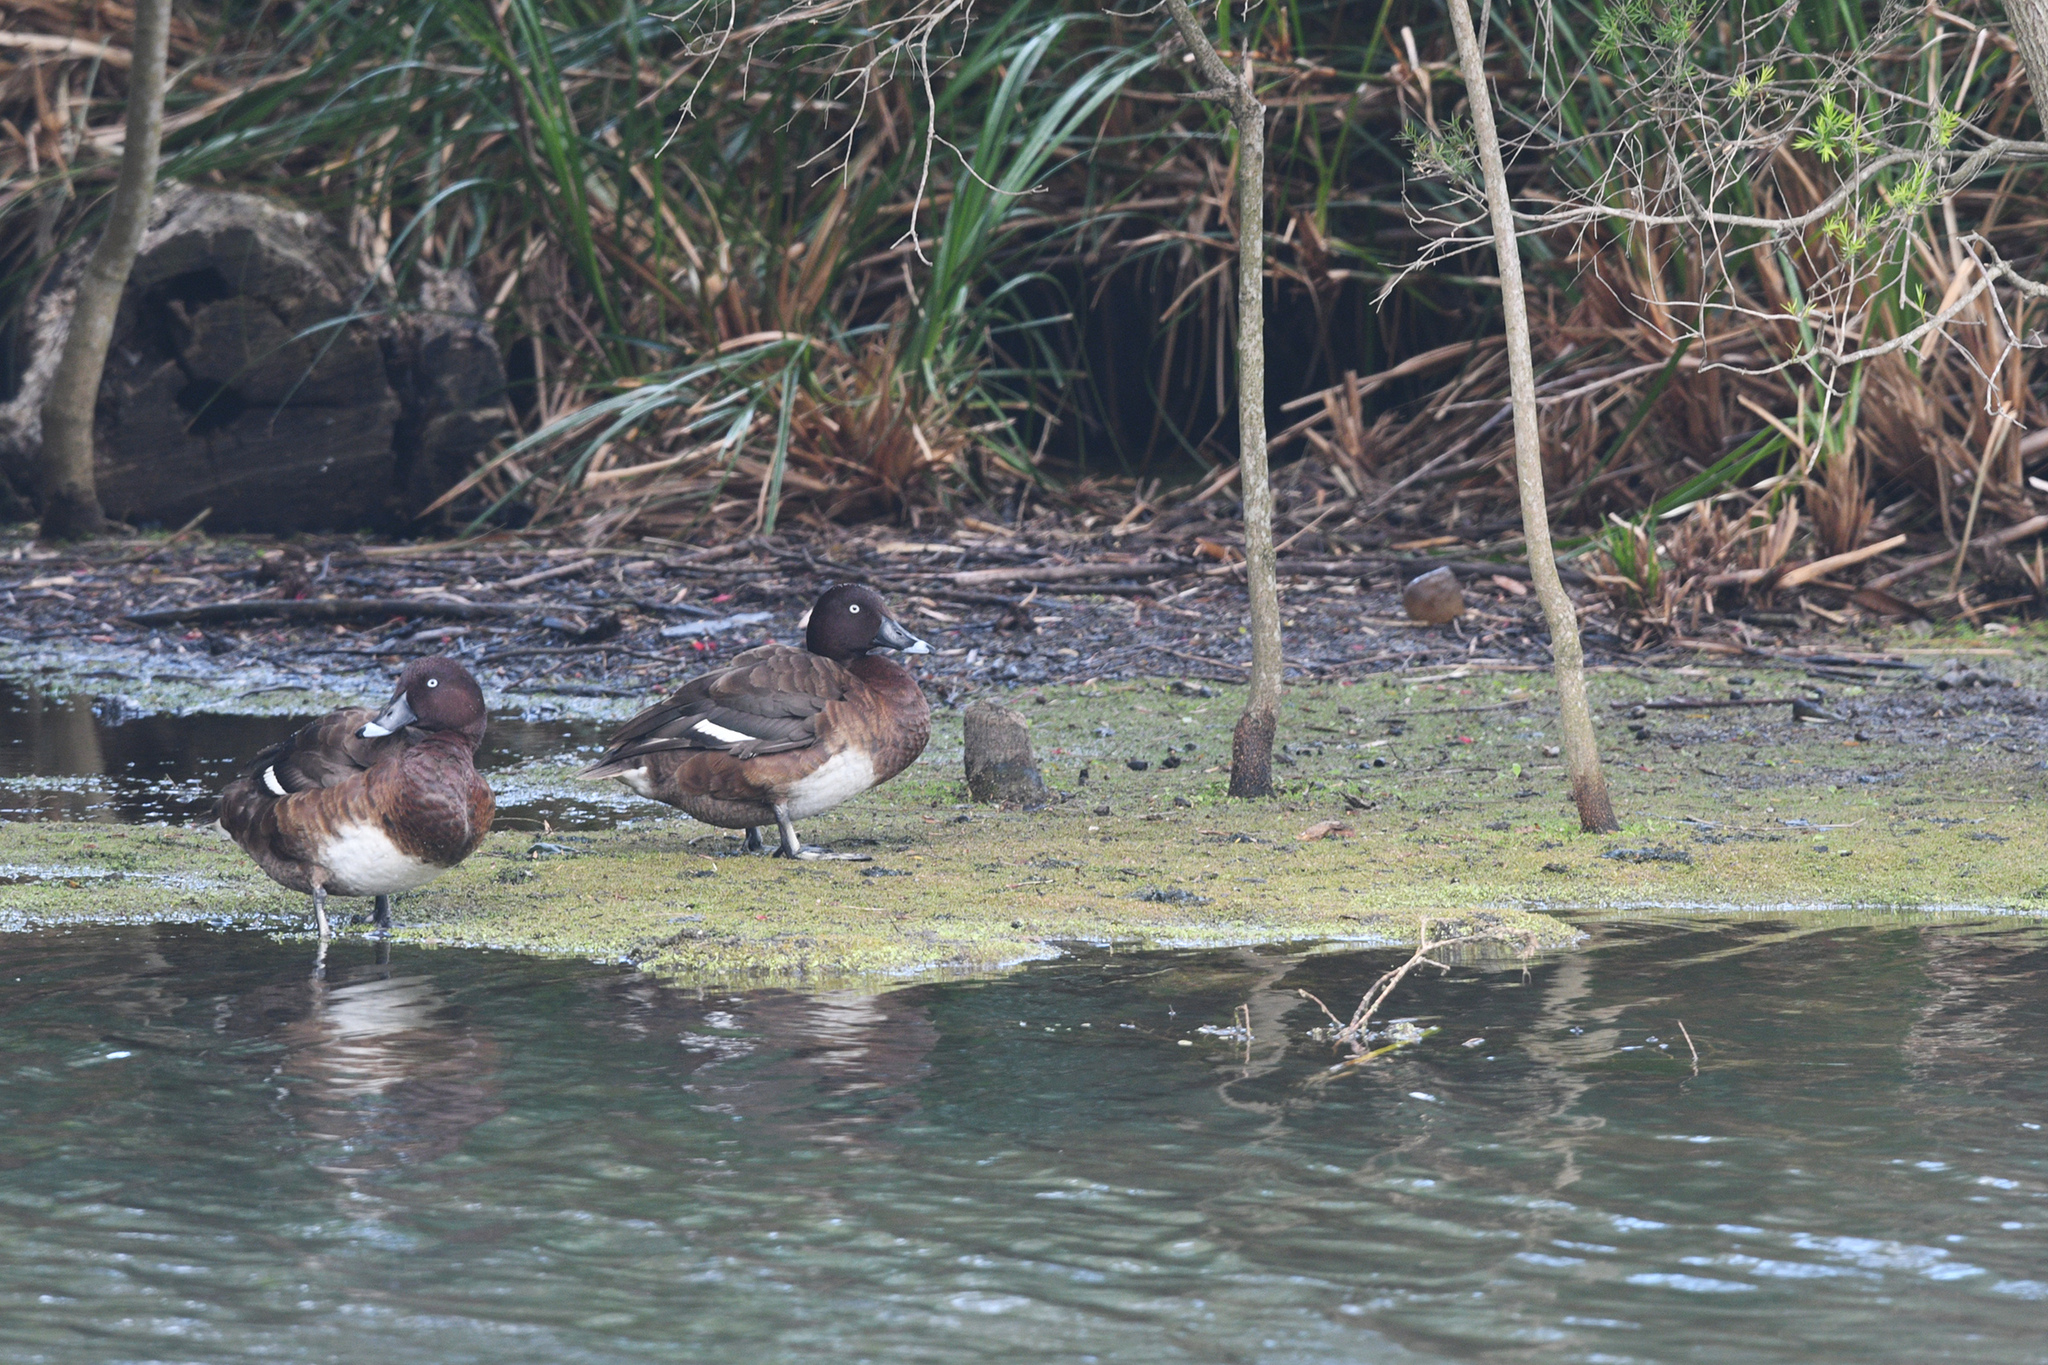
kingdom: Animalia
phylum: Chordata
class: Aves
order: Anseriformes
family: Anatidae
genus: Aythya
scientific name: Aythya australis
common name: Hardhead
